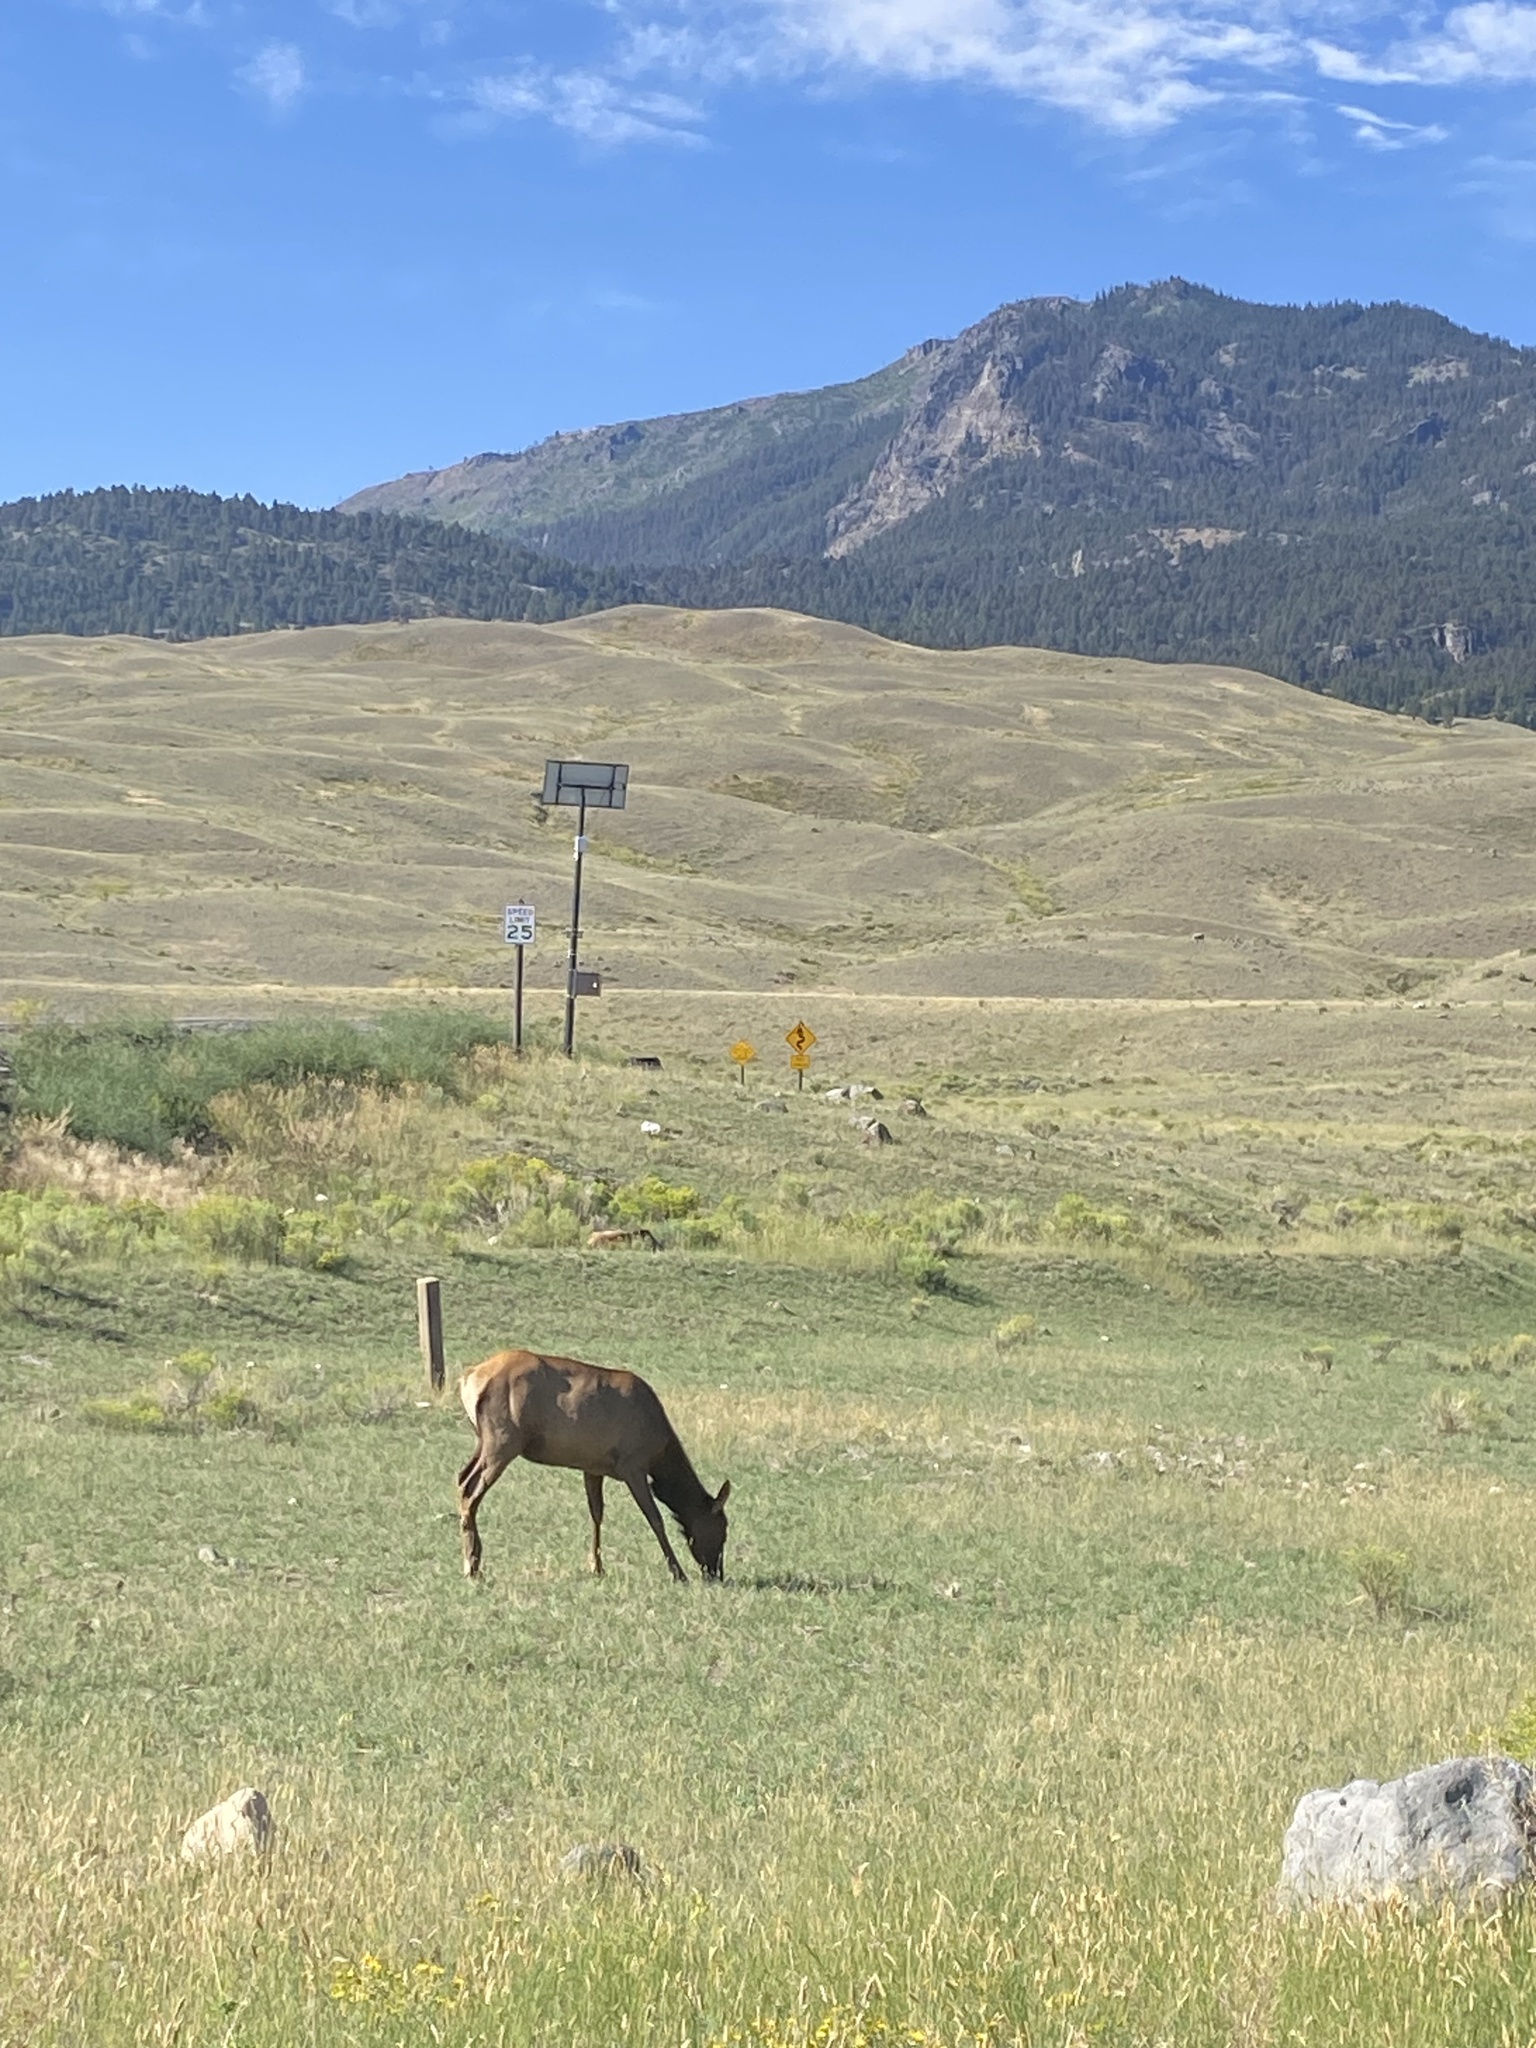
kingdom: Animalia
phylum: Chordata
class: Mammalia
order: Artiodactyla
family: Cervidae
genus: Cervus
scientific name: Cervus elaphus
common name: Red deer
